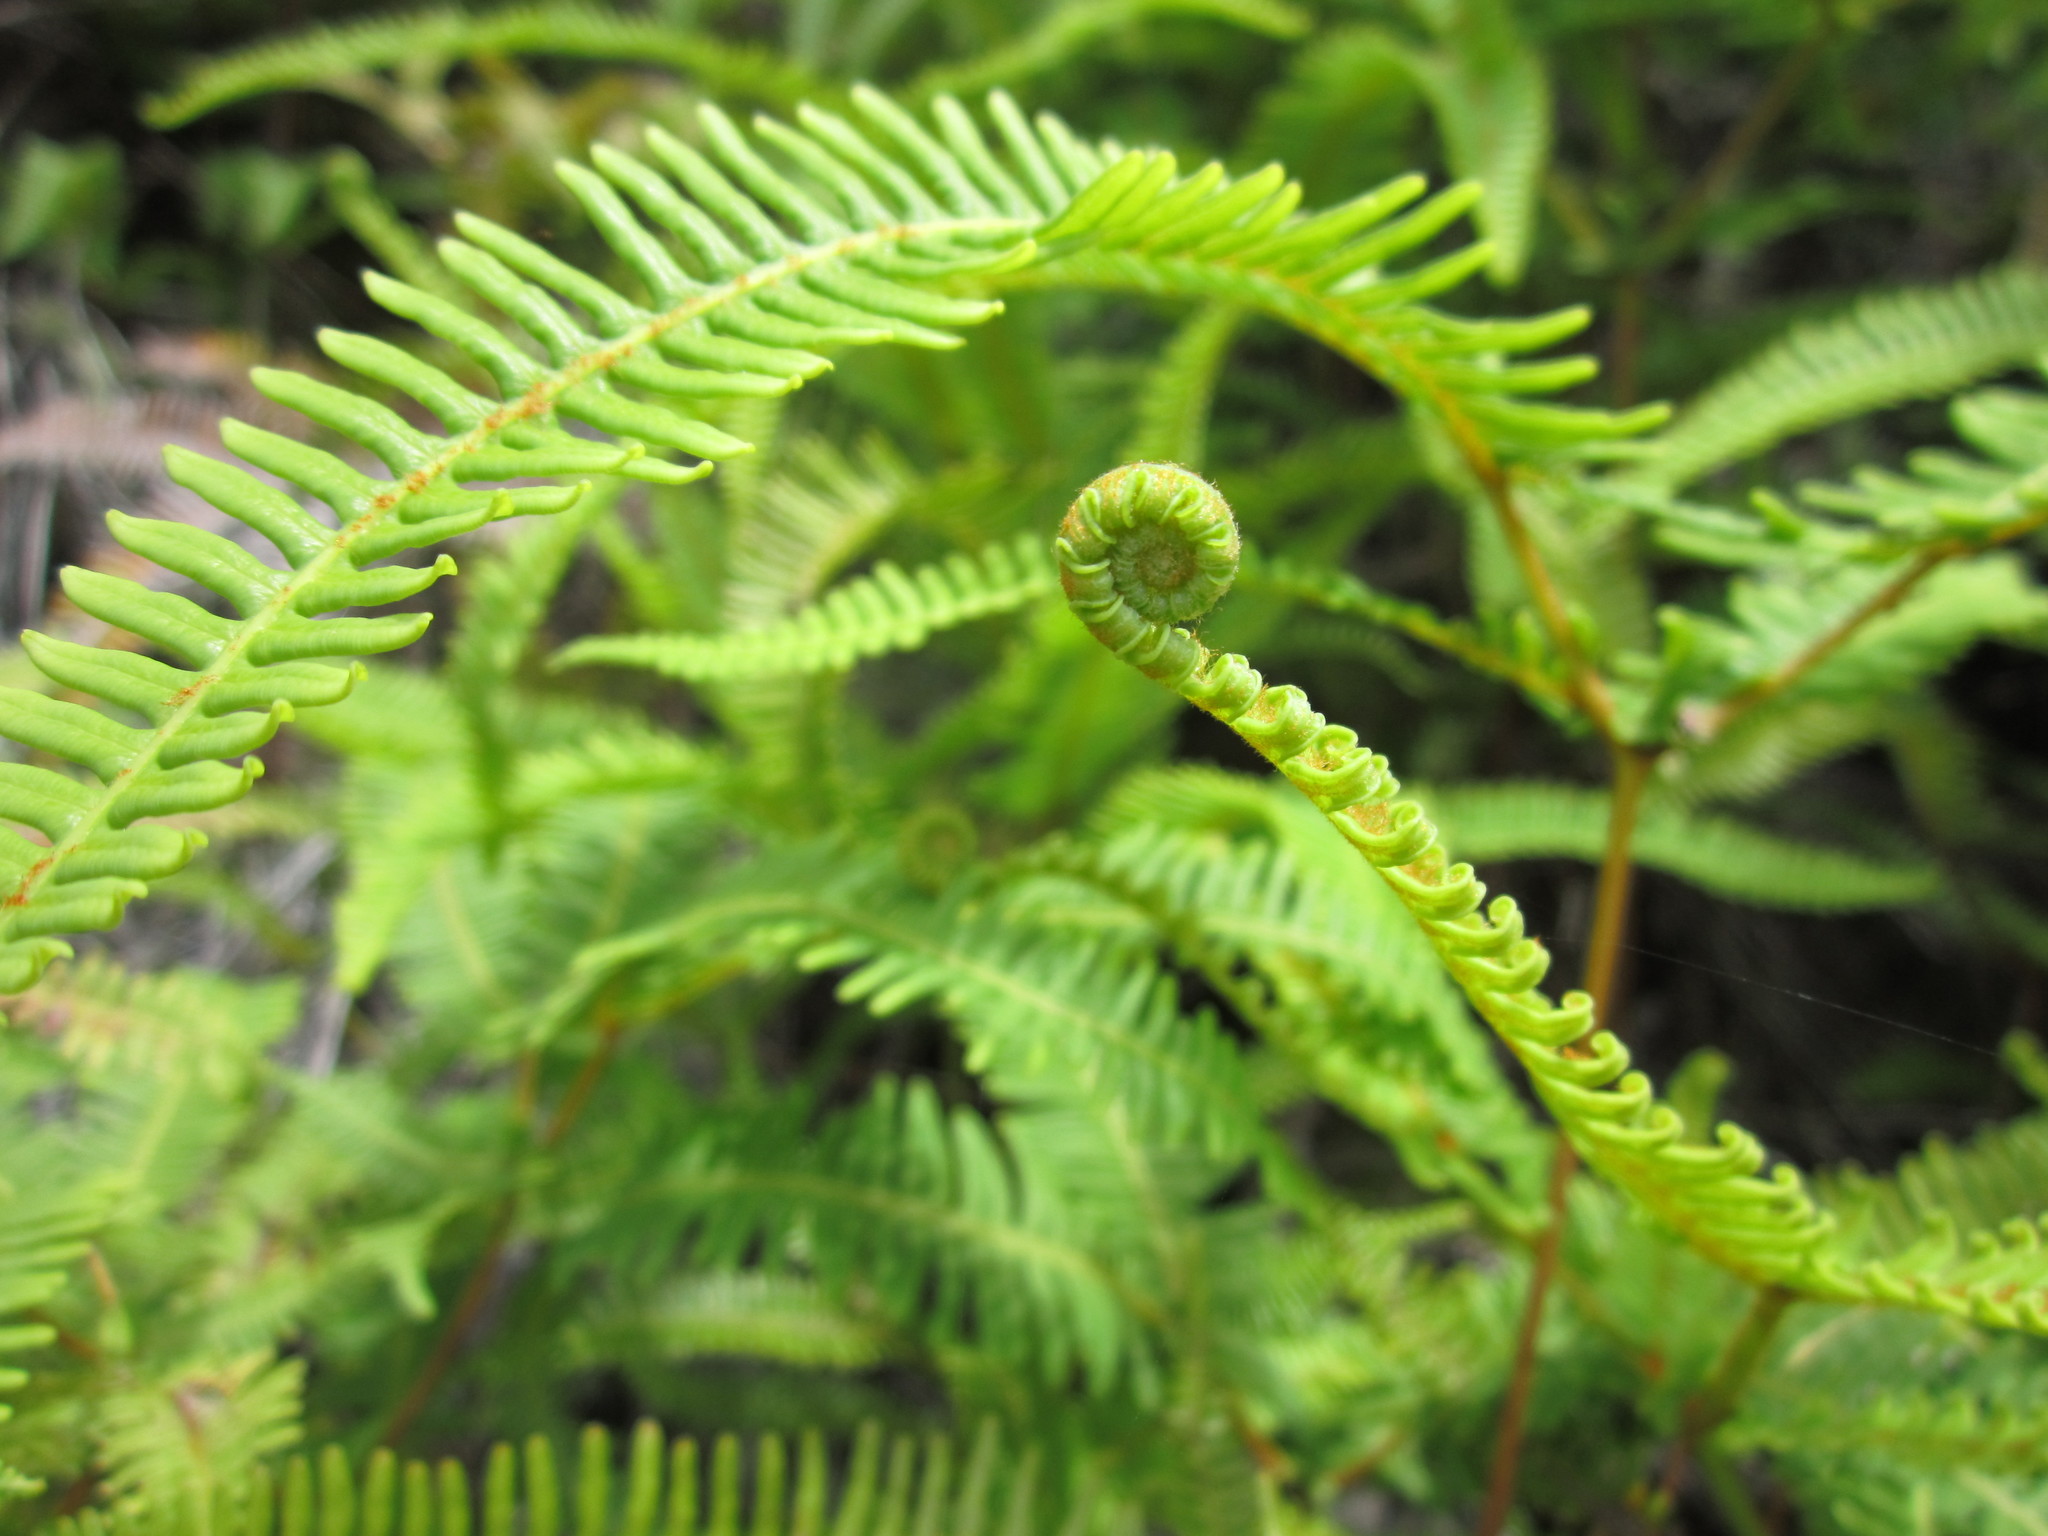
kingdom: Plantae
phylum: Tracheophyta
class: Polypodiopsida
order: Gleicheniales
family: Gleicheniaceae
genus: Dicranopteris
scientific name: Dicranopteris linearis
